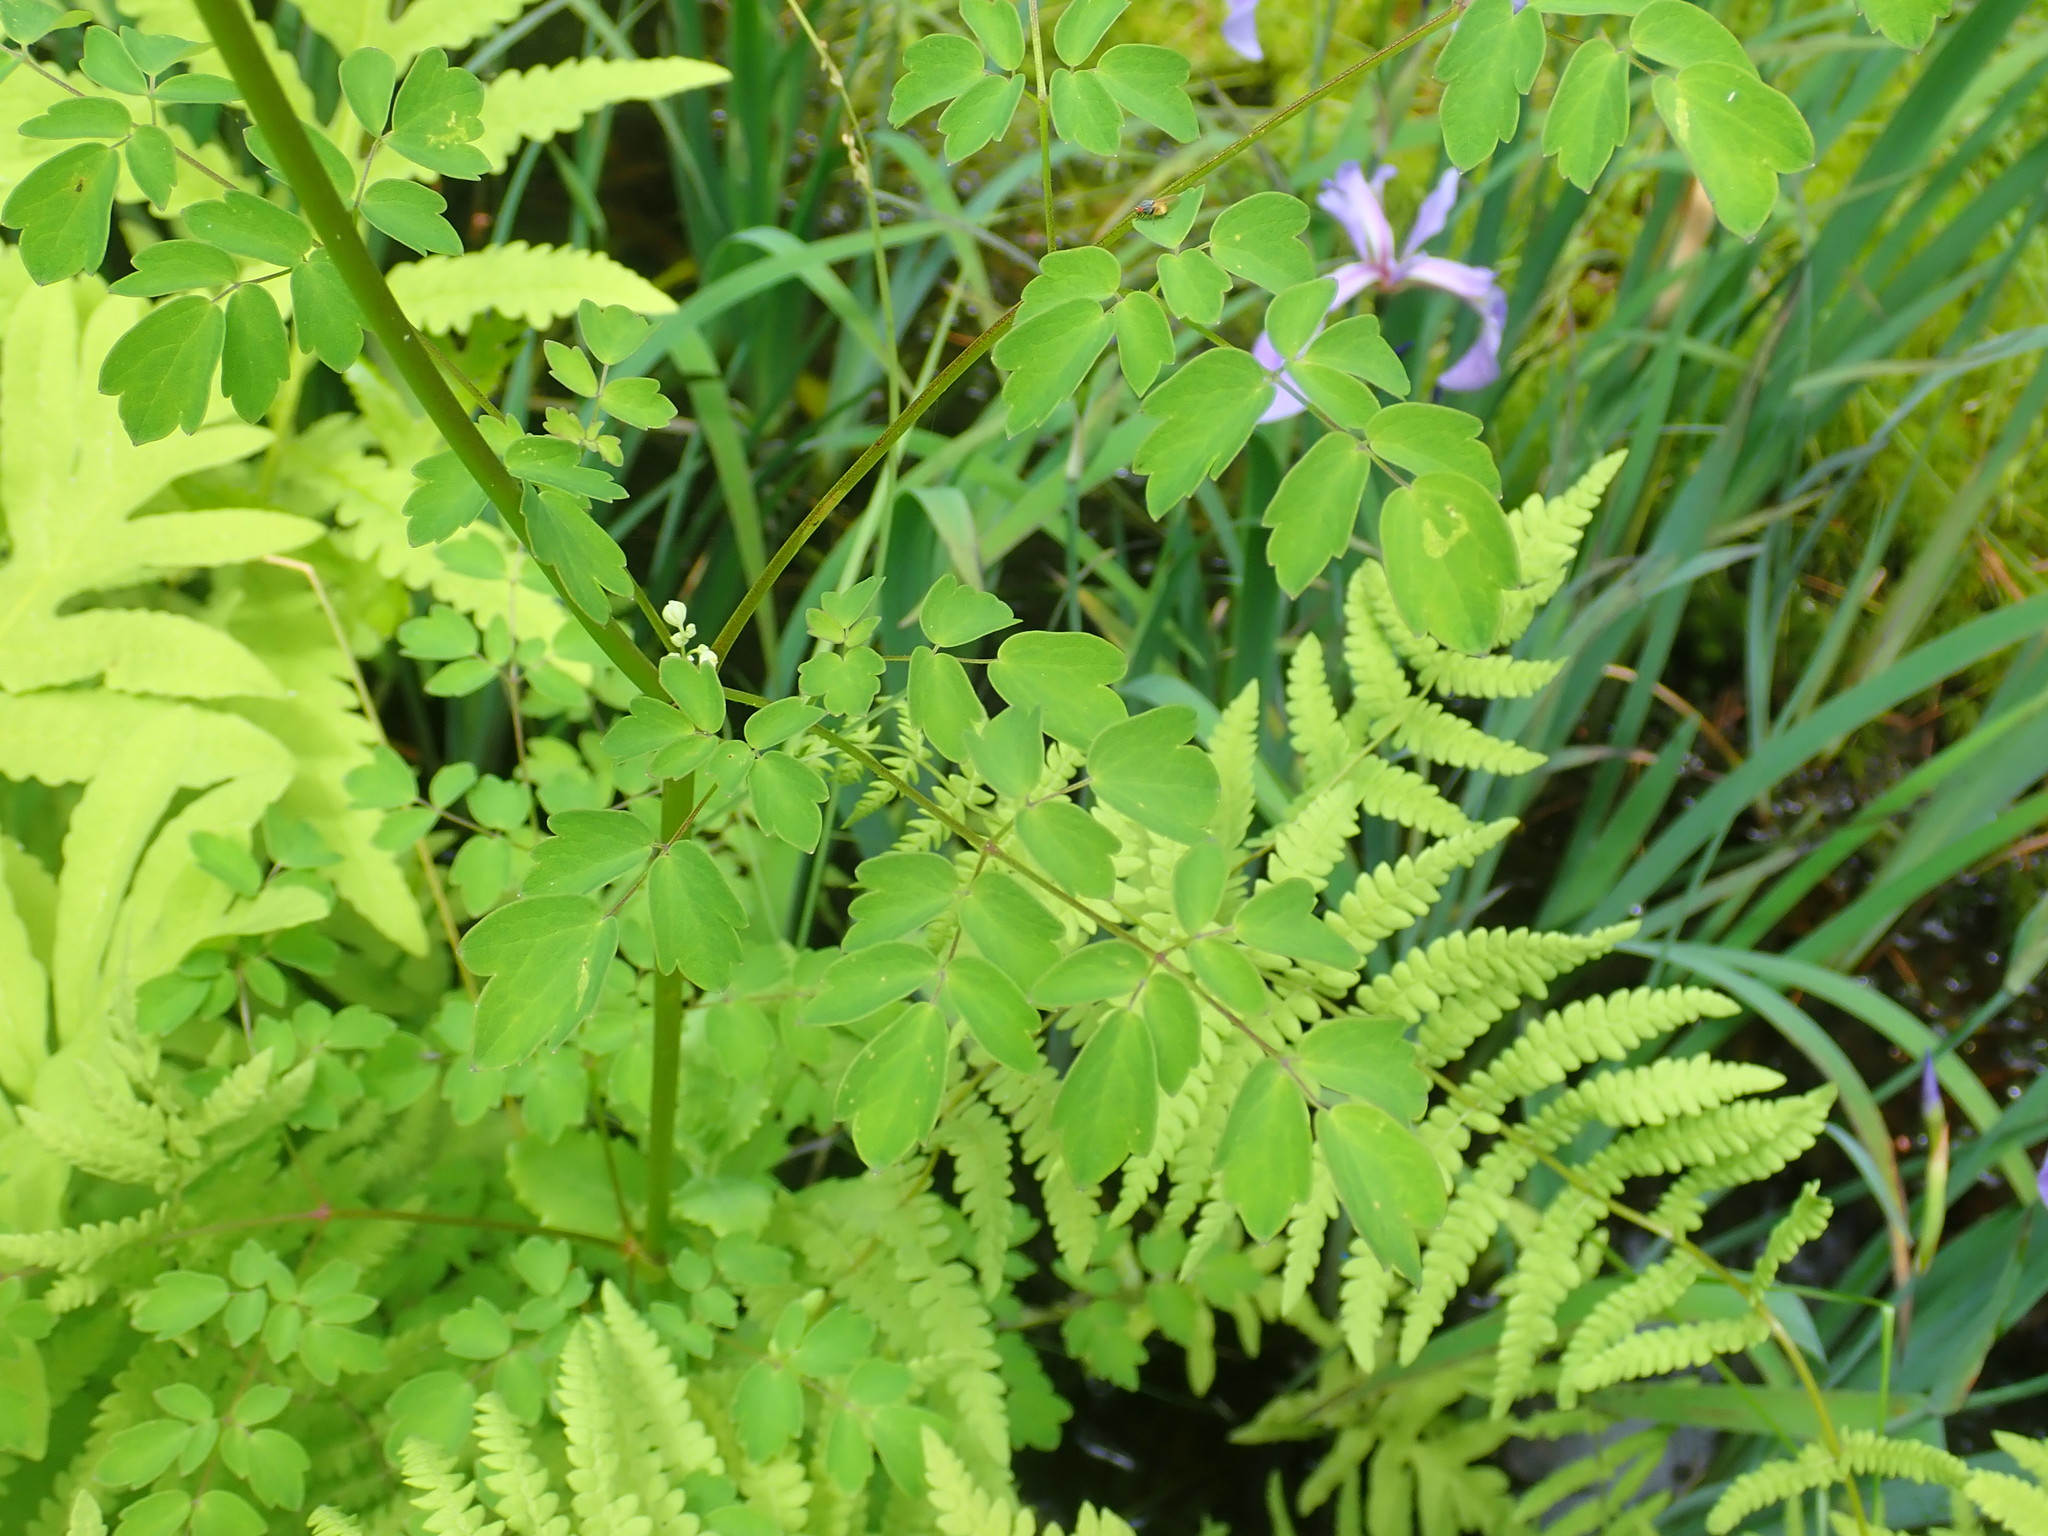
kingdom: Plantae
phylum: Tracheophyta
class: Magnoliopsida
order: Ranunculales
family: Ranunculaceae
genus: Thalictrum
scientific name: Thalictrum pubescens
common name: King-of-the-meadow
